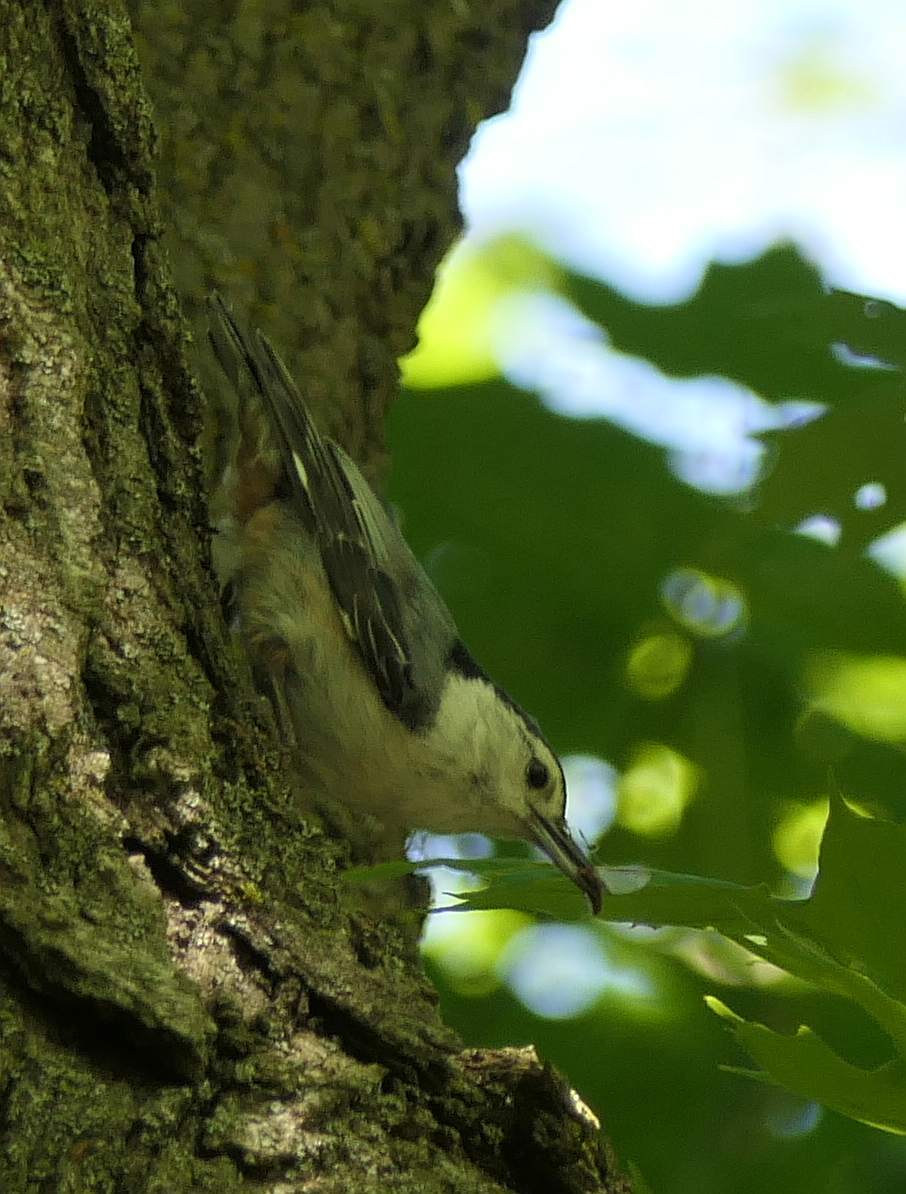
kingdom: Animalia
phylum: Chordata
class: Aves
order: Passeriformes
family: Sittidae
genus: Sitta
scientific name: Sitta carolinensis
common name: White-breasted nuthatch
